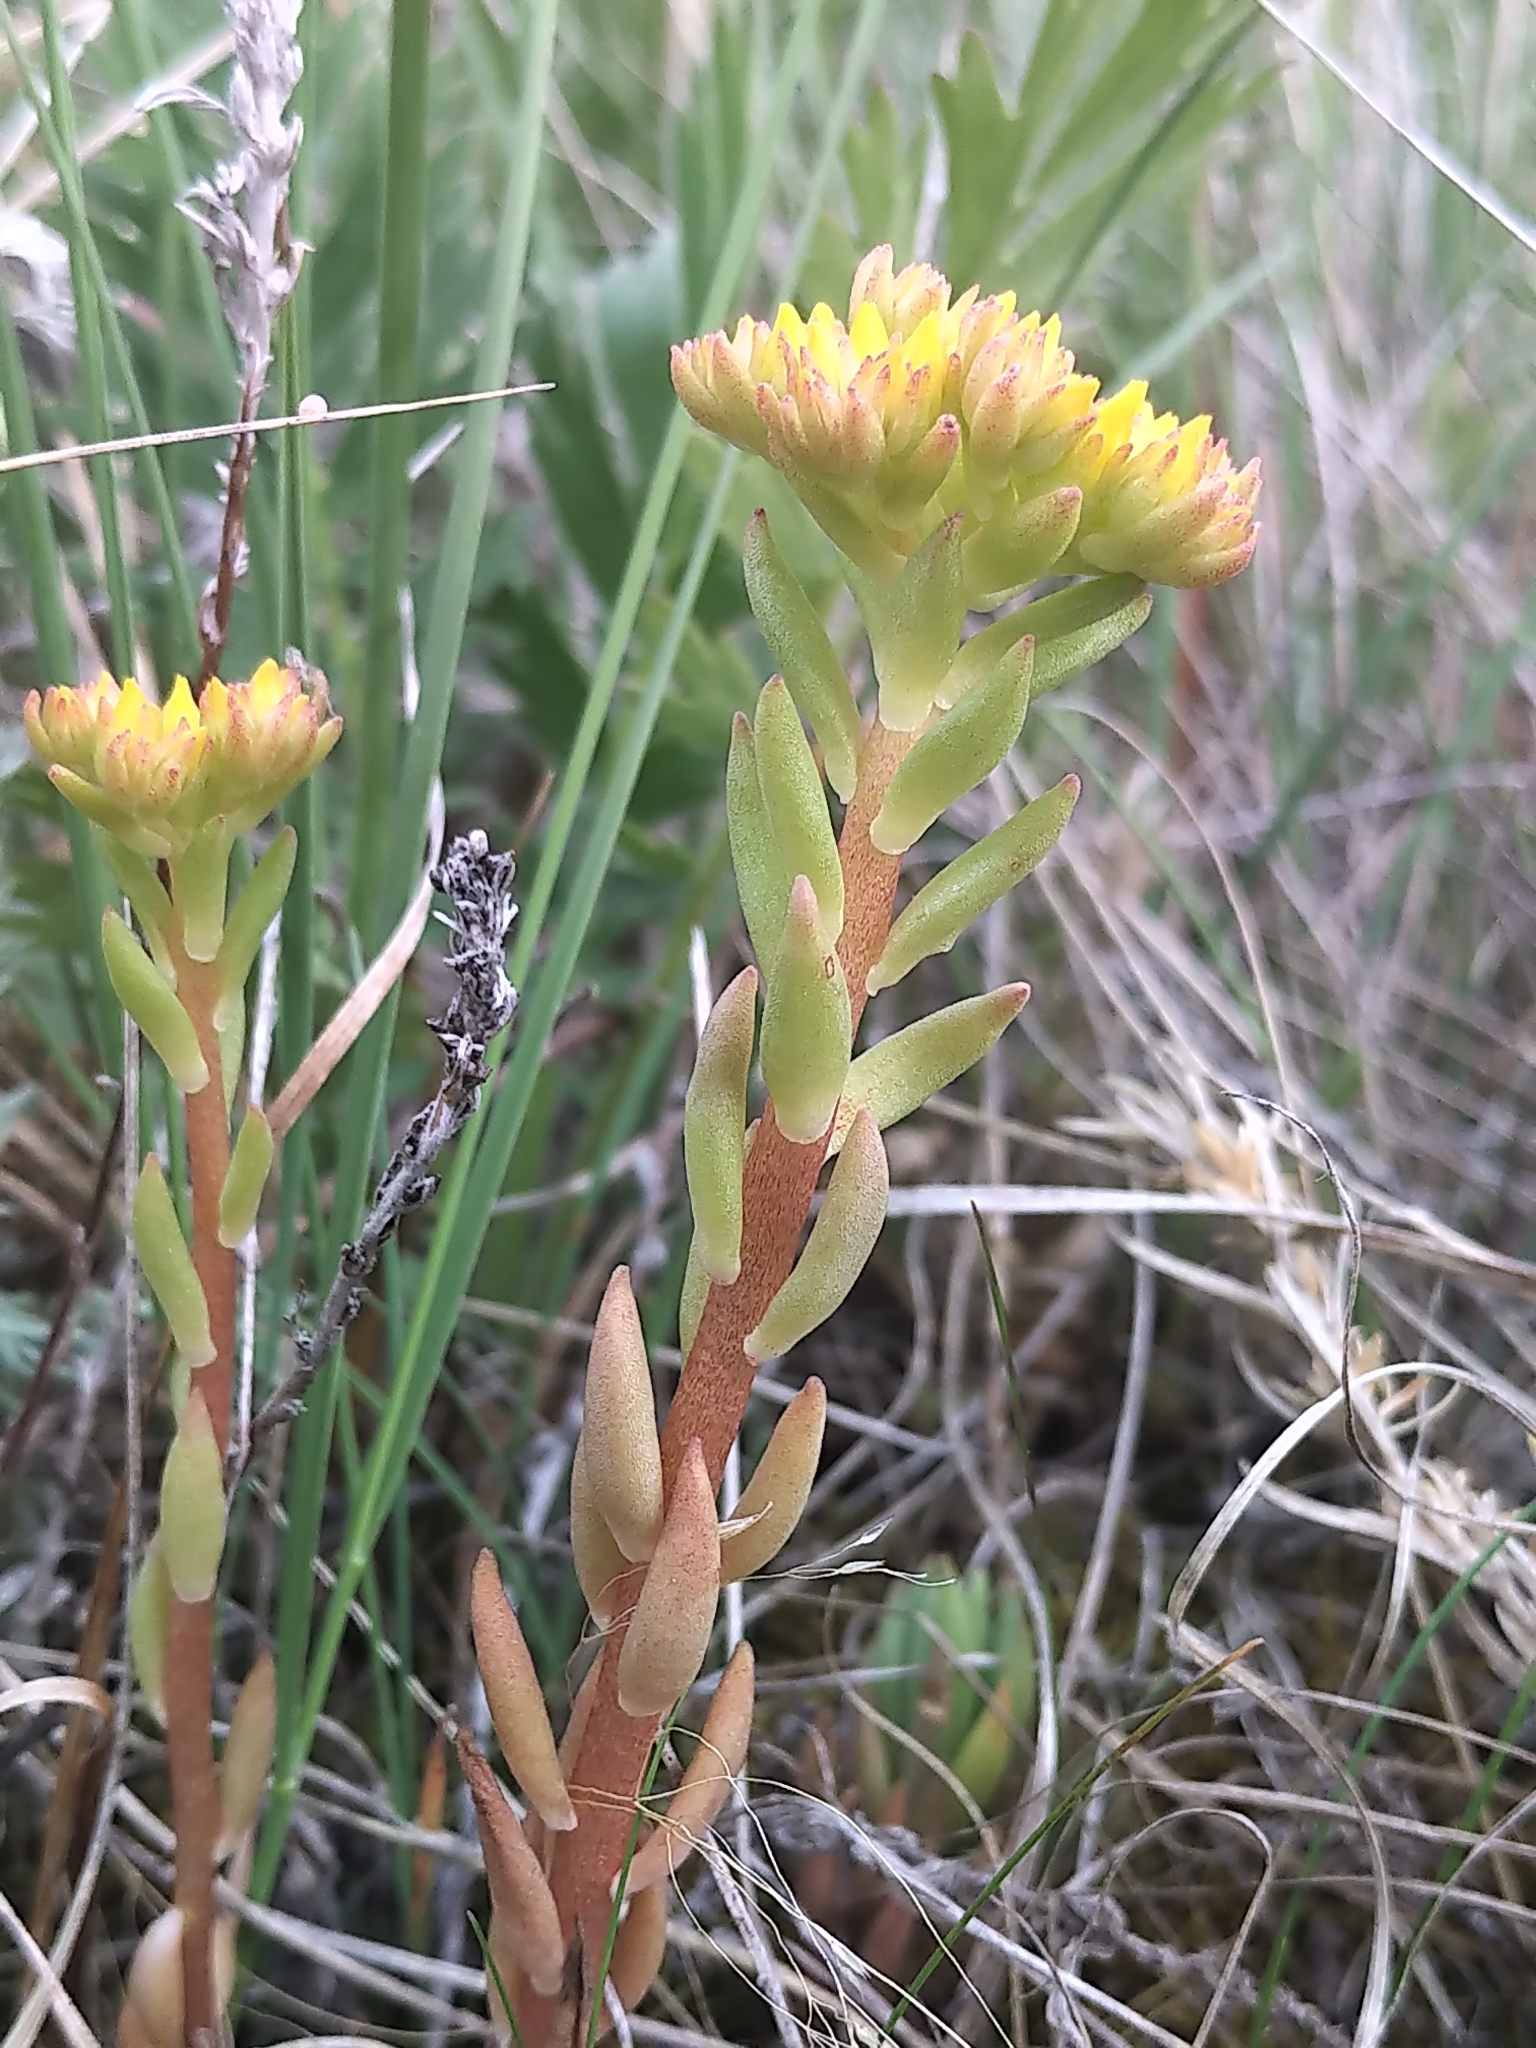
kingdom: Plantae
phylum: Tracheophyta
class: Magnoliopsida
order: Saxifragales
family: Crassulaceae
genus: Sedum
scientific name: Sedum lanceolatum
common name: Common stonecrop
